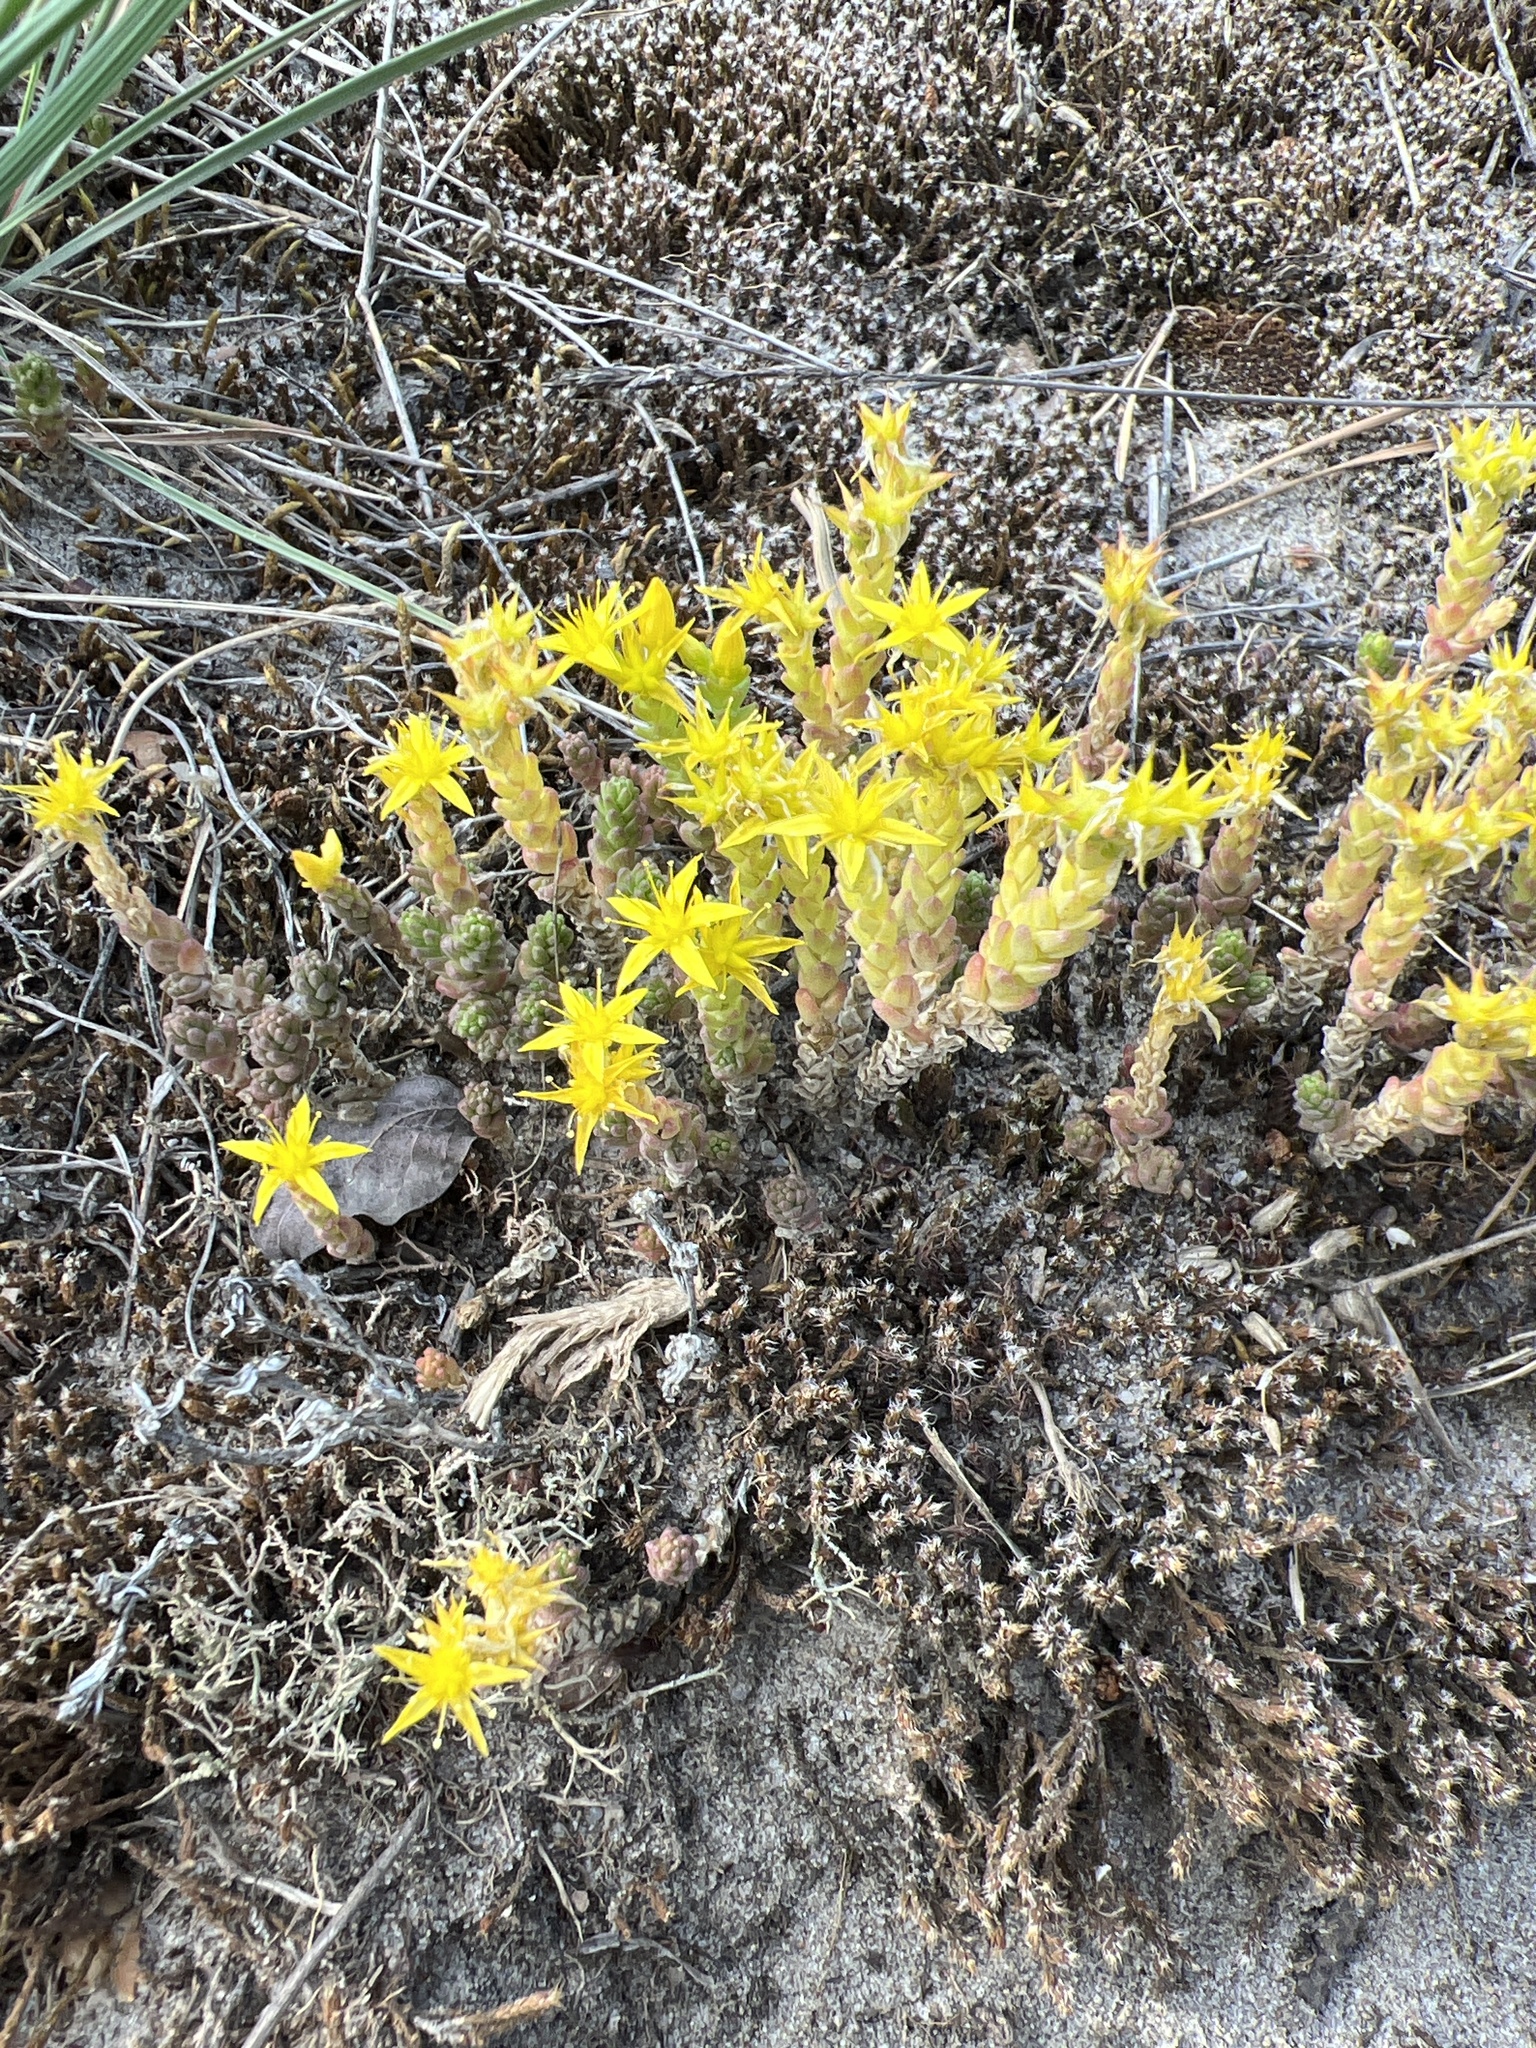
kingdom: Plantae
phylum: Tracheophyta
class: Magnoliopsida
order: Saxifragales
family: Crassulaceae
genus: Sedum
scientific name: Sedum acre
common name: Biting stonecrop
